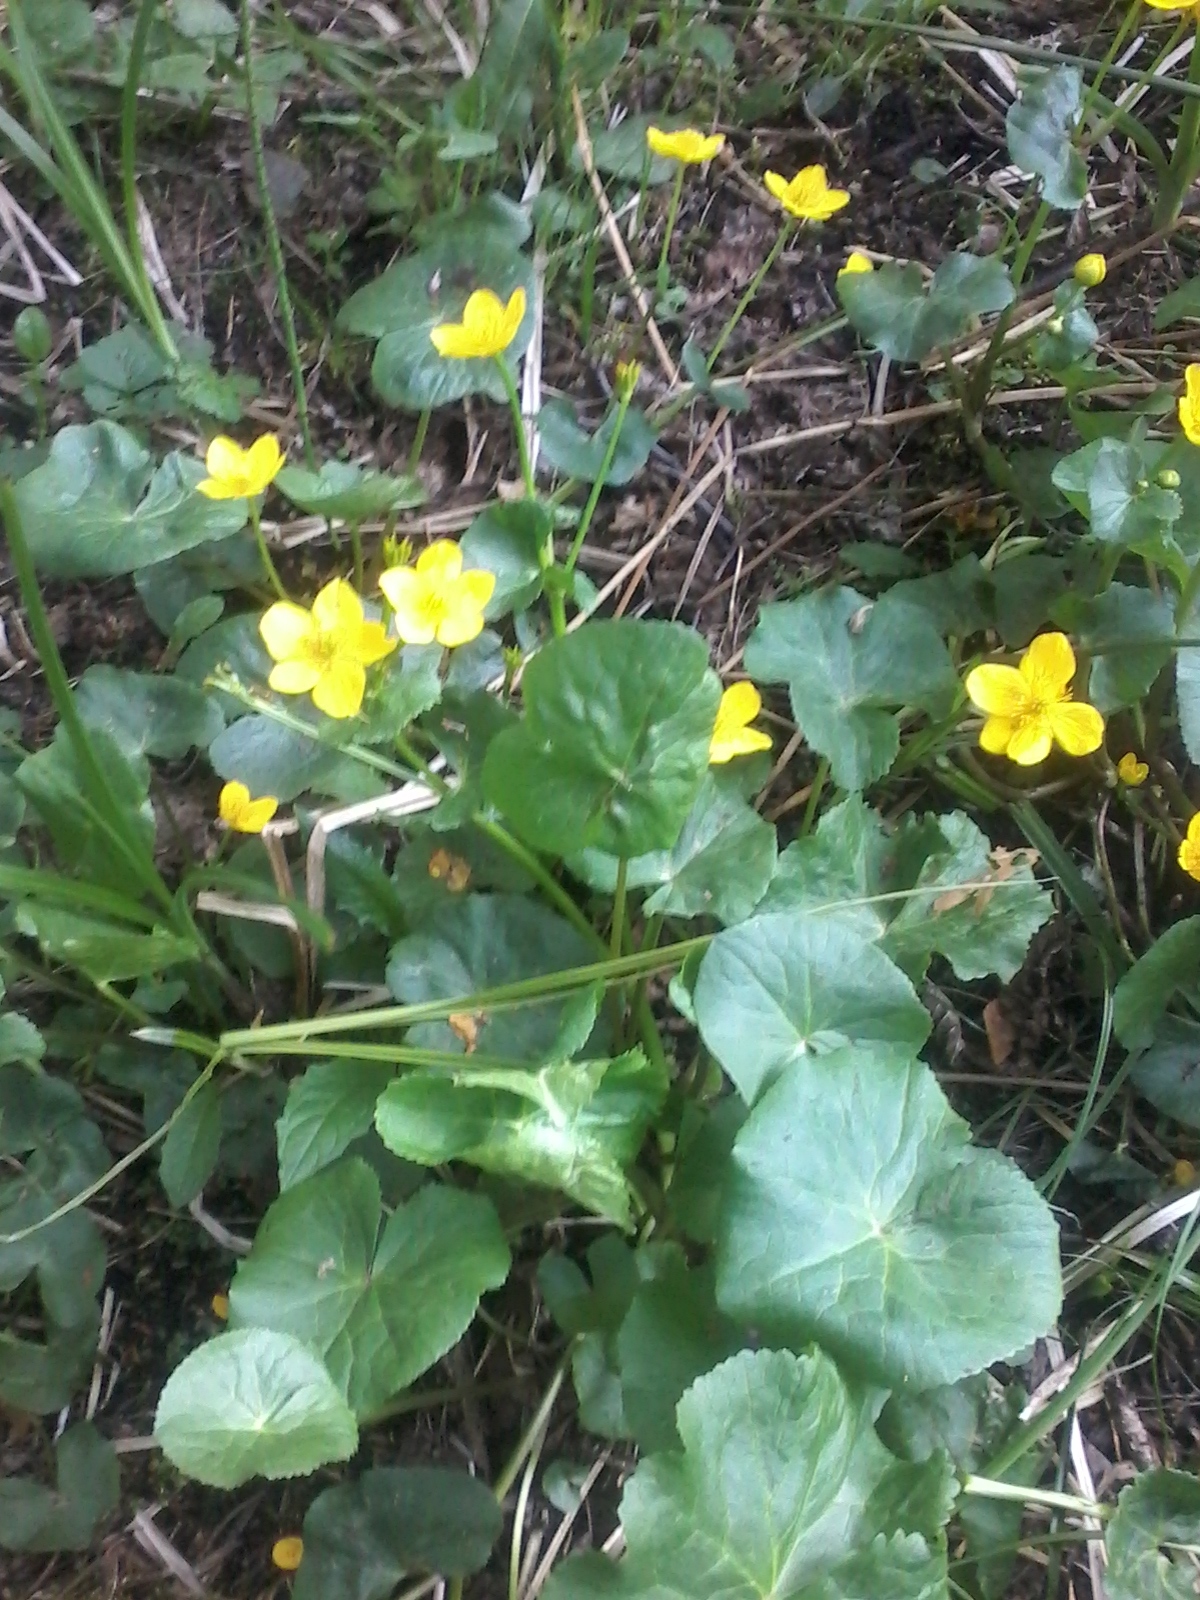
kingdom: Plantae
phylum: Tracheophyta
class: Magnoliopsida
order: Ranunculales
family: Ranunculaceae
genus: Caltha
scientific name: Caltha palustris
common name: Marsh marigold
